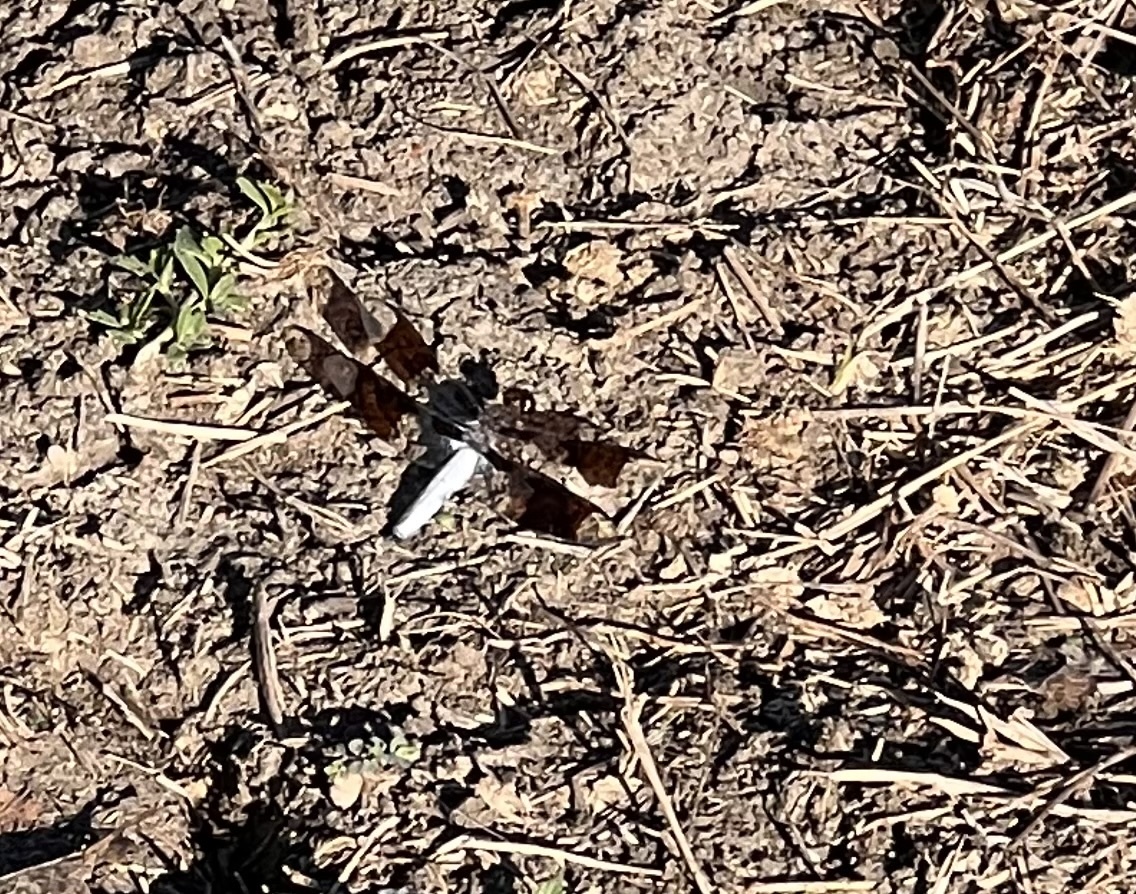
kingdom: Animalia
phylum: Arthropoda
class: Insecta
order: Odonata
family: Libellulidae
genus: Plathemis
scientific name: Plathemis lydia
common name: Common whitetail
